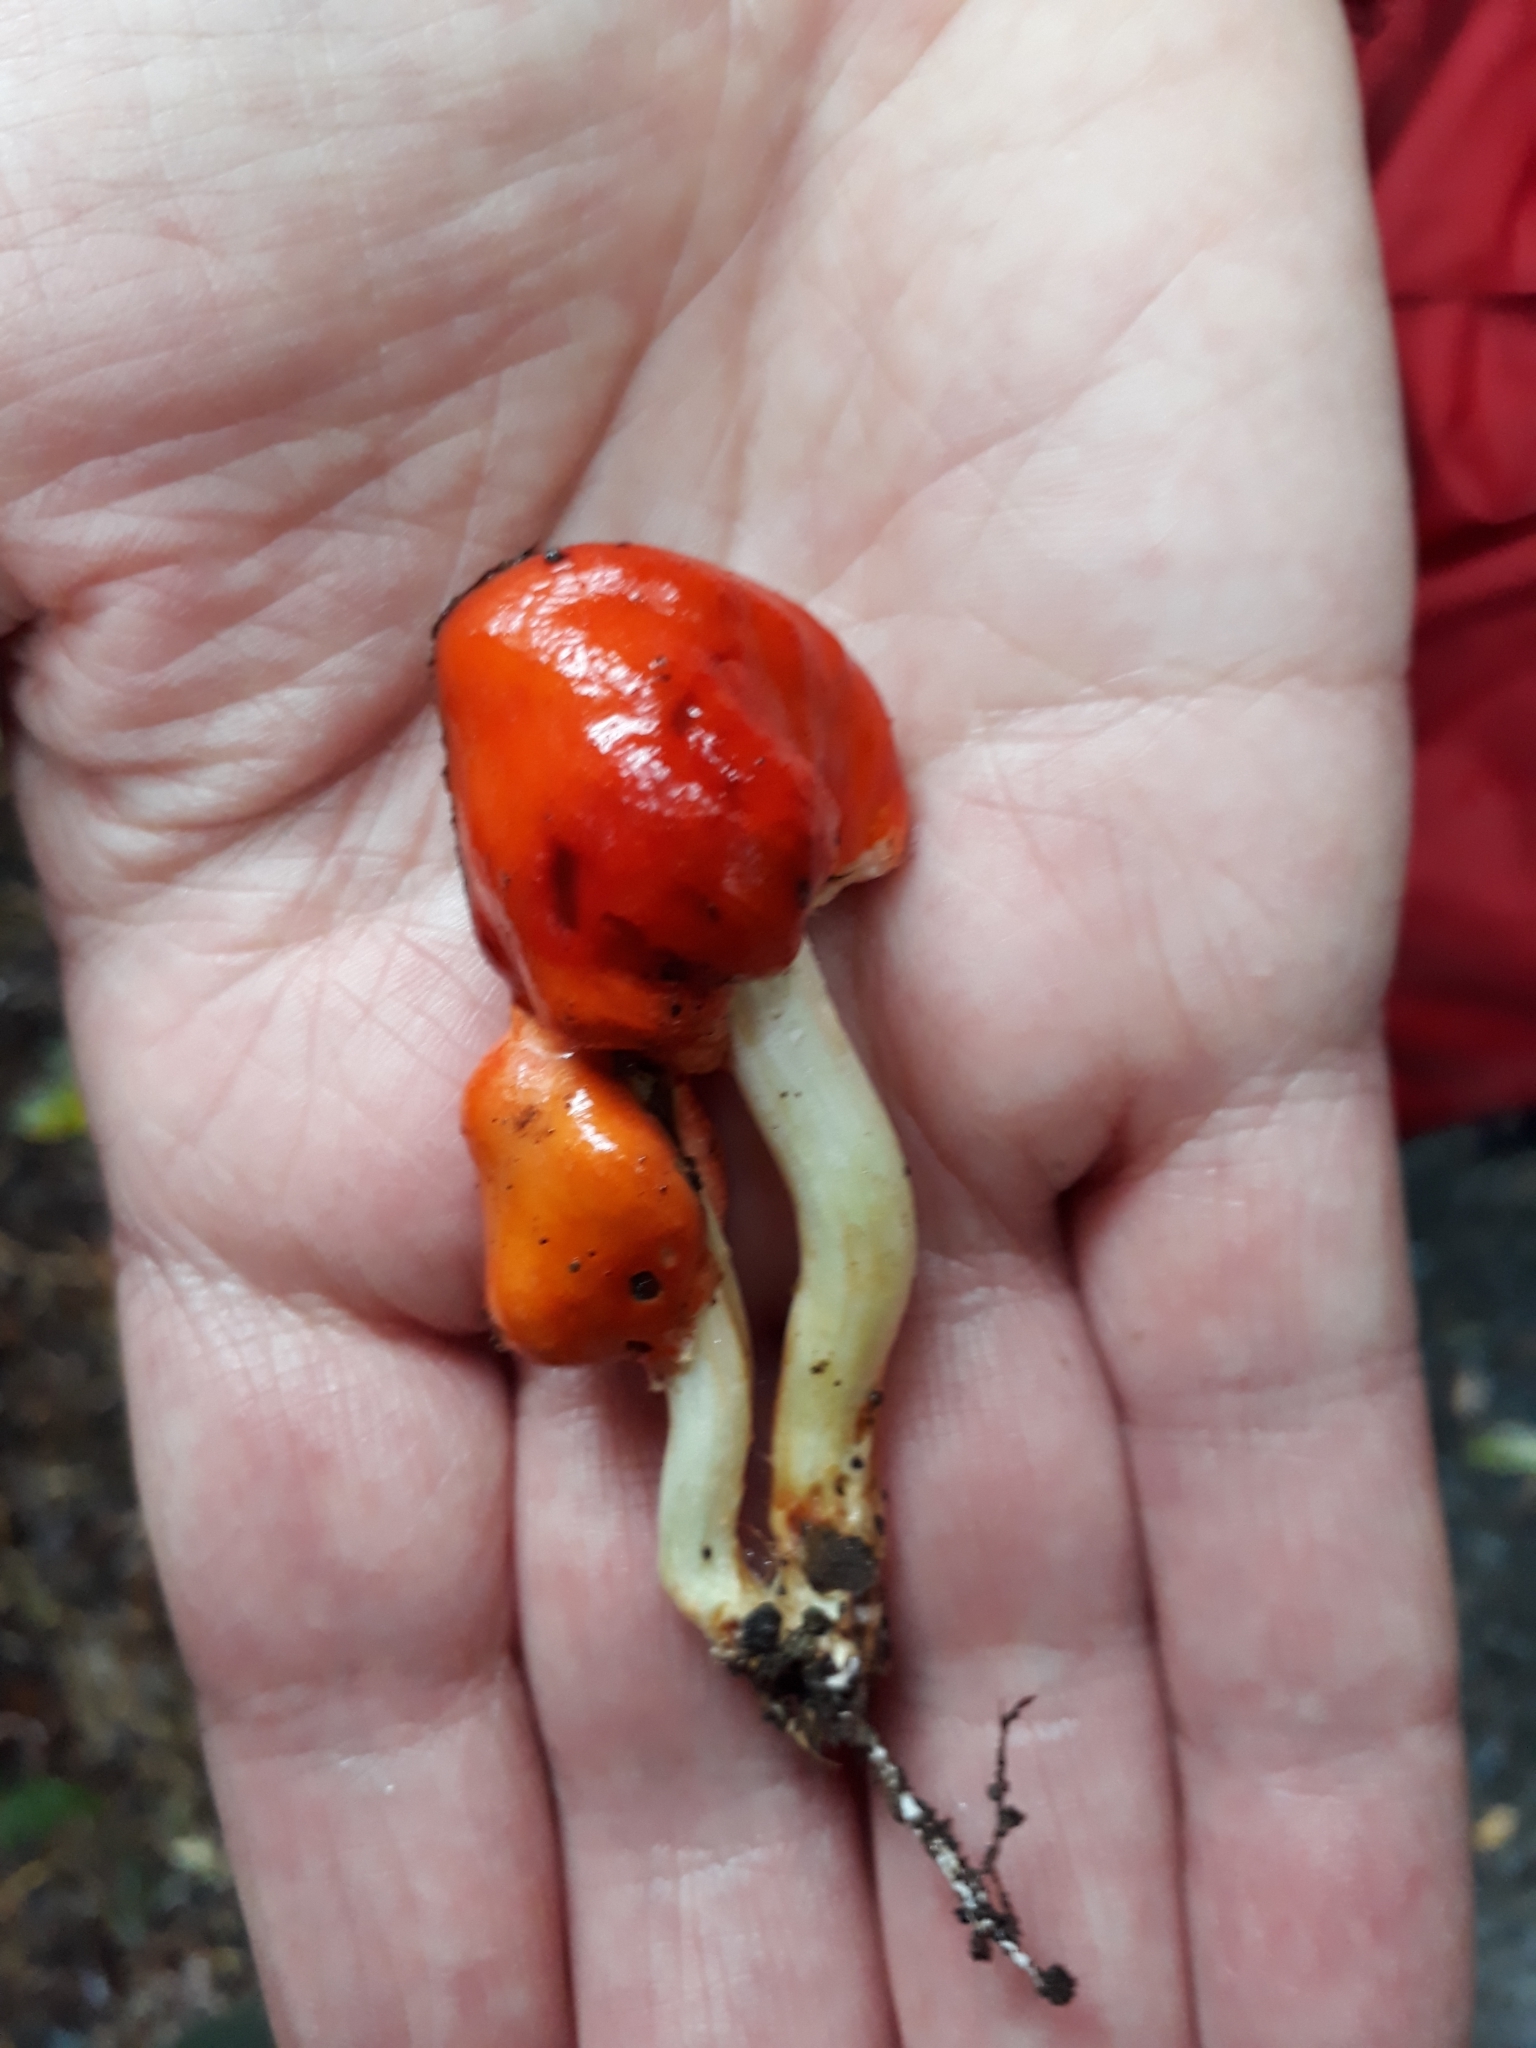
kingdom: Fungi
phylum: Basidiomycota
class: Agaricomycetes
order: Agaricales
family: Strophariaceae
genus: Leratiomyces
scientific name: Leratiomyces erythrocephalus
